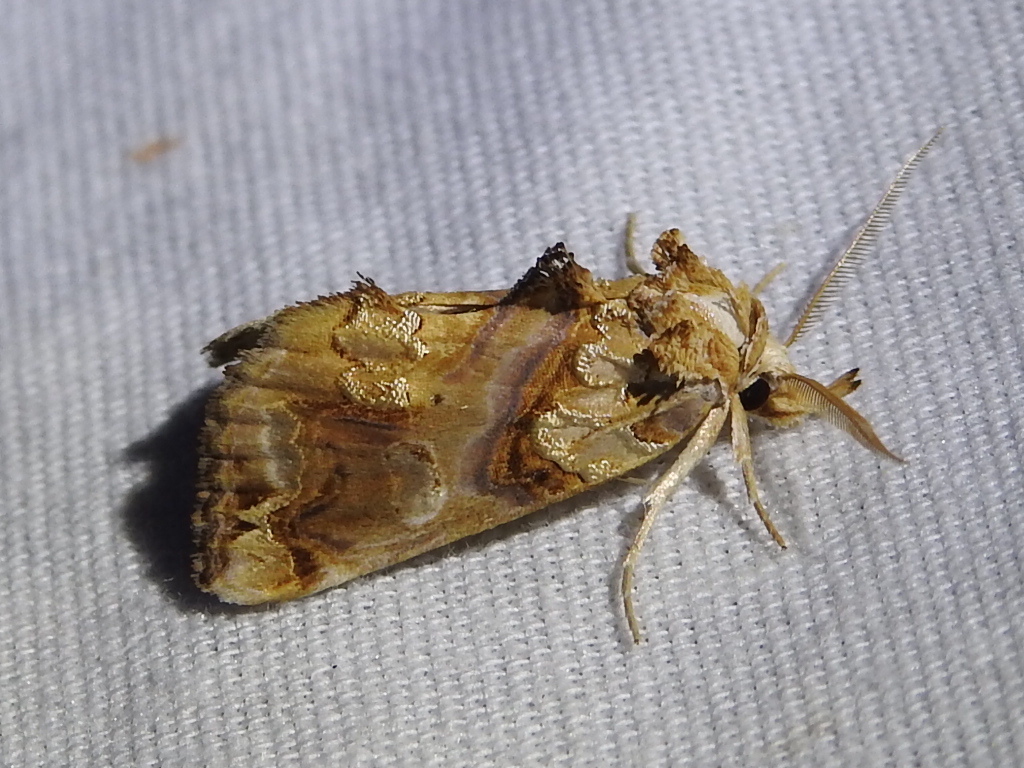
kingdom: Animalia
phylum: Arthropoda
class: Insecta
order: Lepidoptera
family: Erebidae
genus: Plusiodonta
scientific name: Plusiodonta compressipalpis
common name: Moonseed moth
